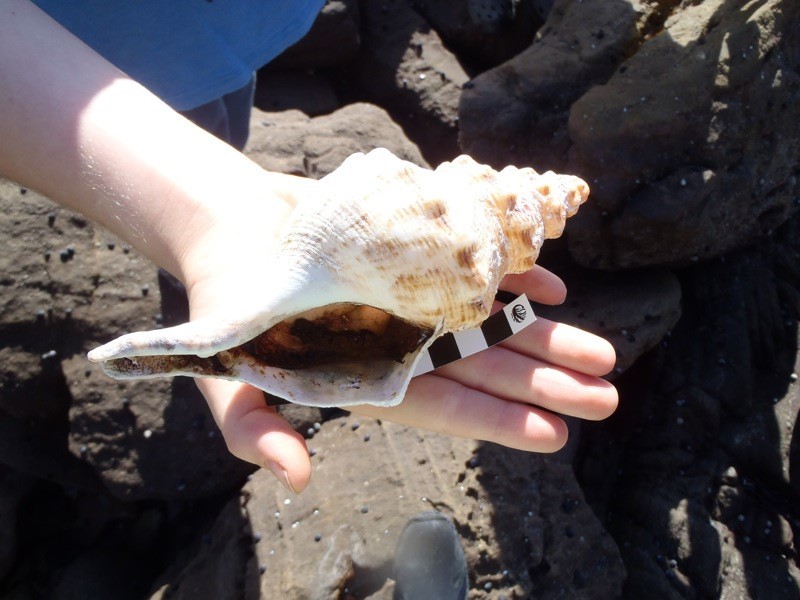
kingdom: Animalia
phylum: Mollusca
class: Gastropoda
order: Neogastropoda
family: Austrosiphonidae
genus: Penion
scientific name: Penion maximus
